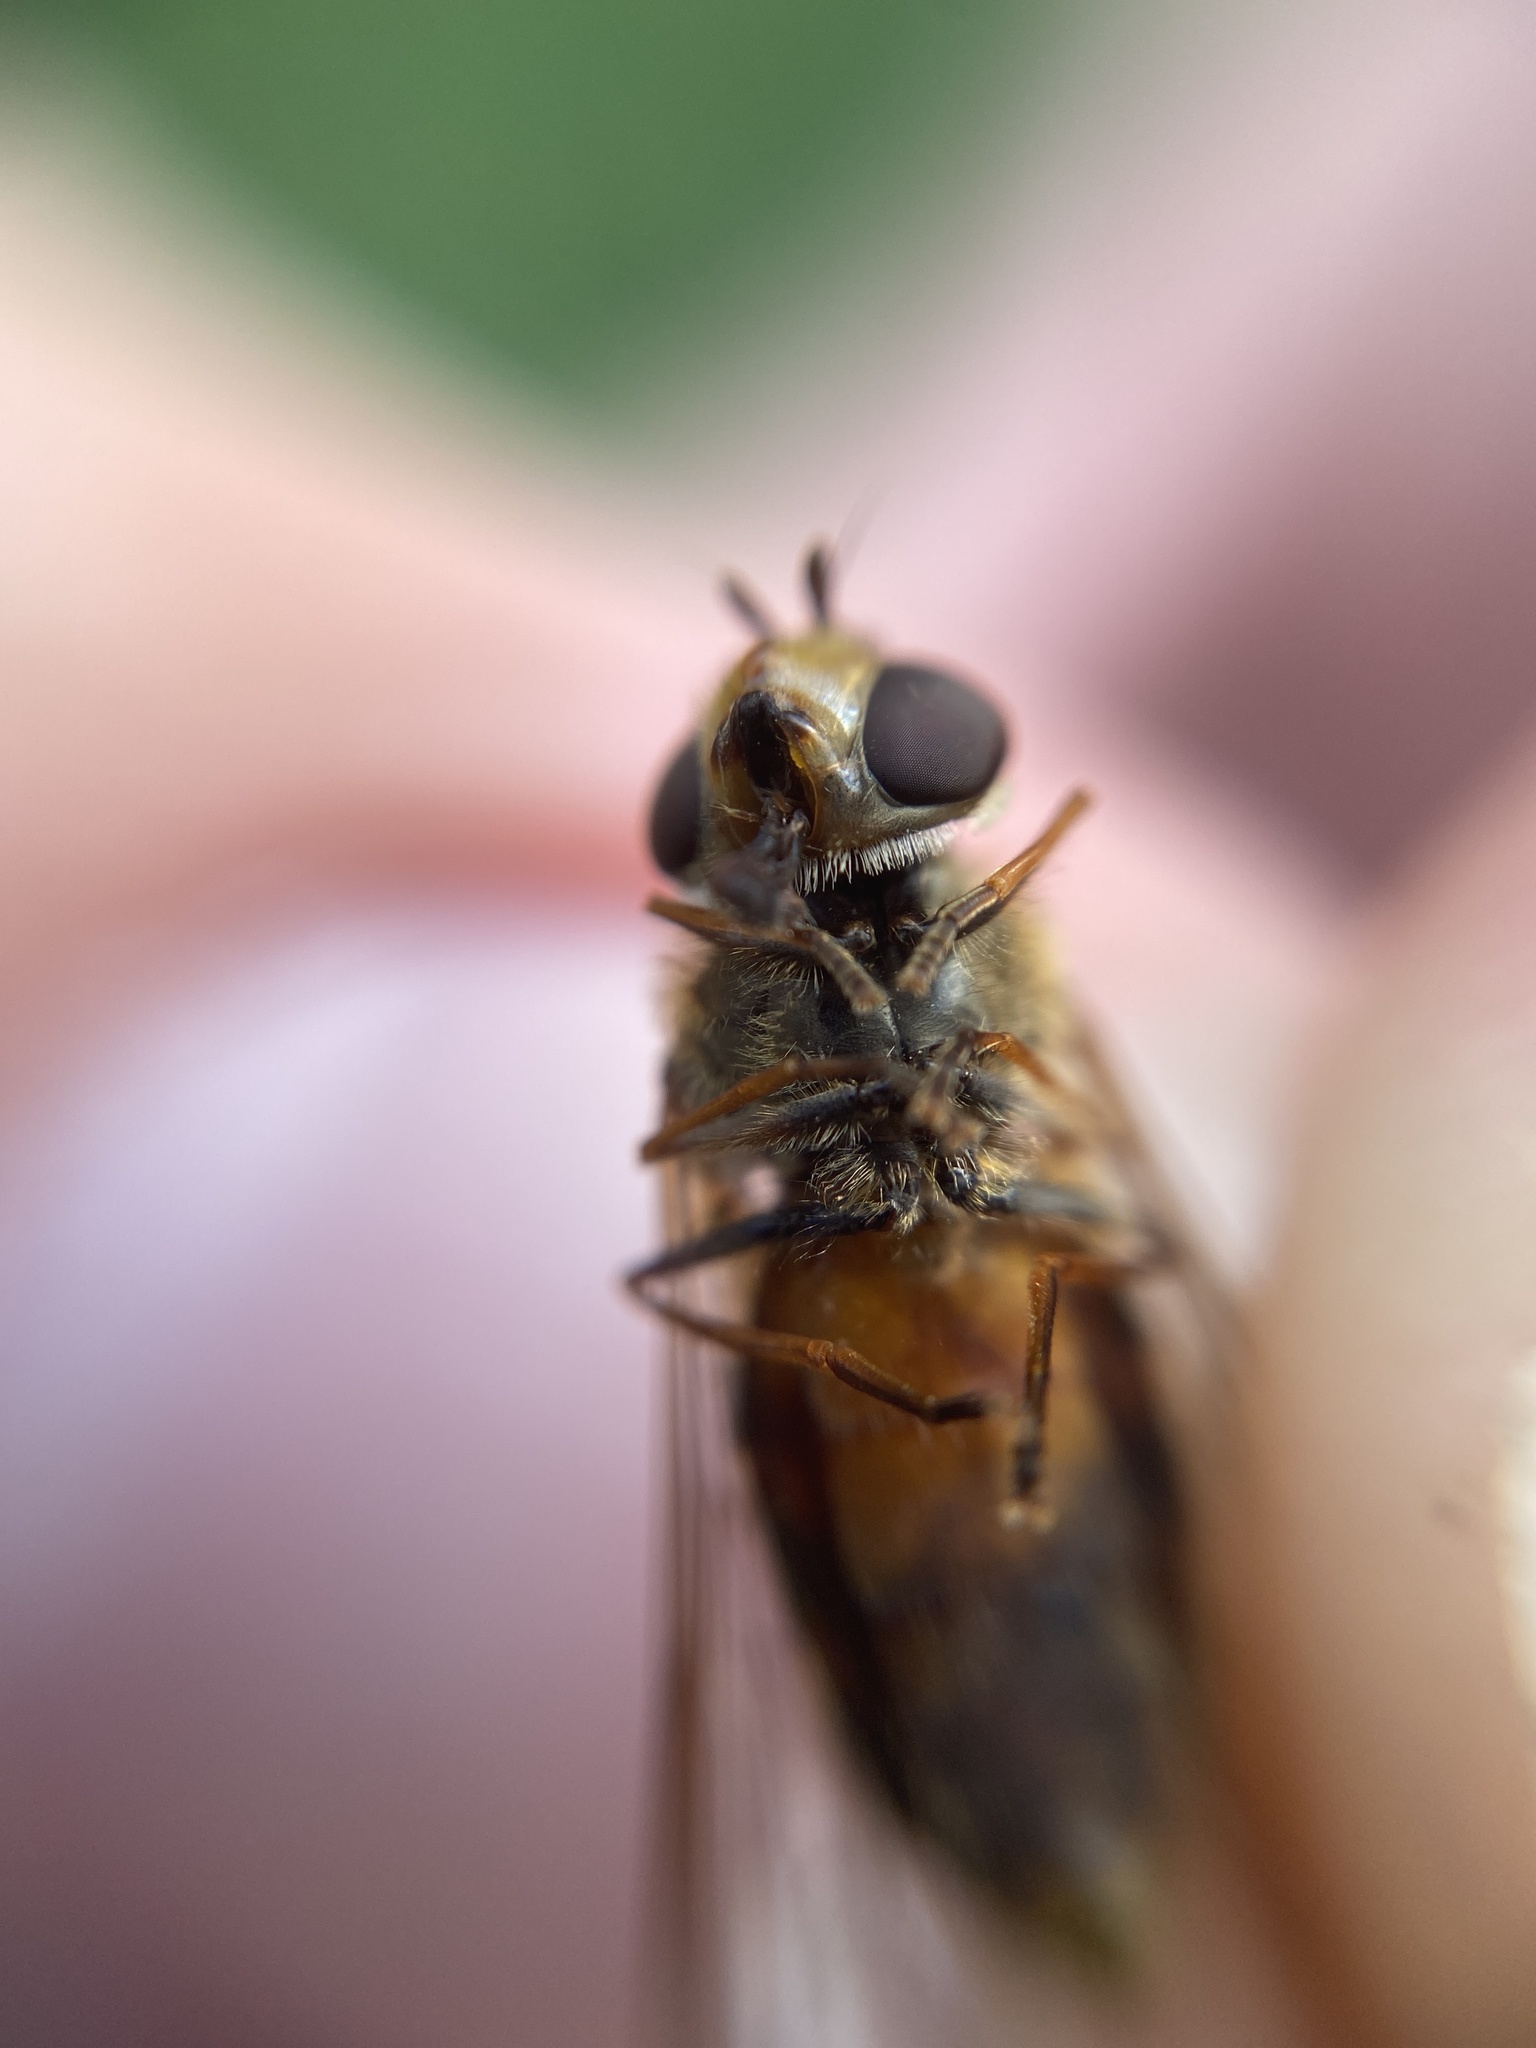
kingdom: Animalia
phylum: Arthropoda
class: Insecta
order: Diptera
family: Syrphidae
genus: Syrphus
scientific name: Syrphus torvus
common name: Hairy-eyed flower fly
